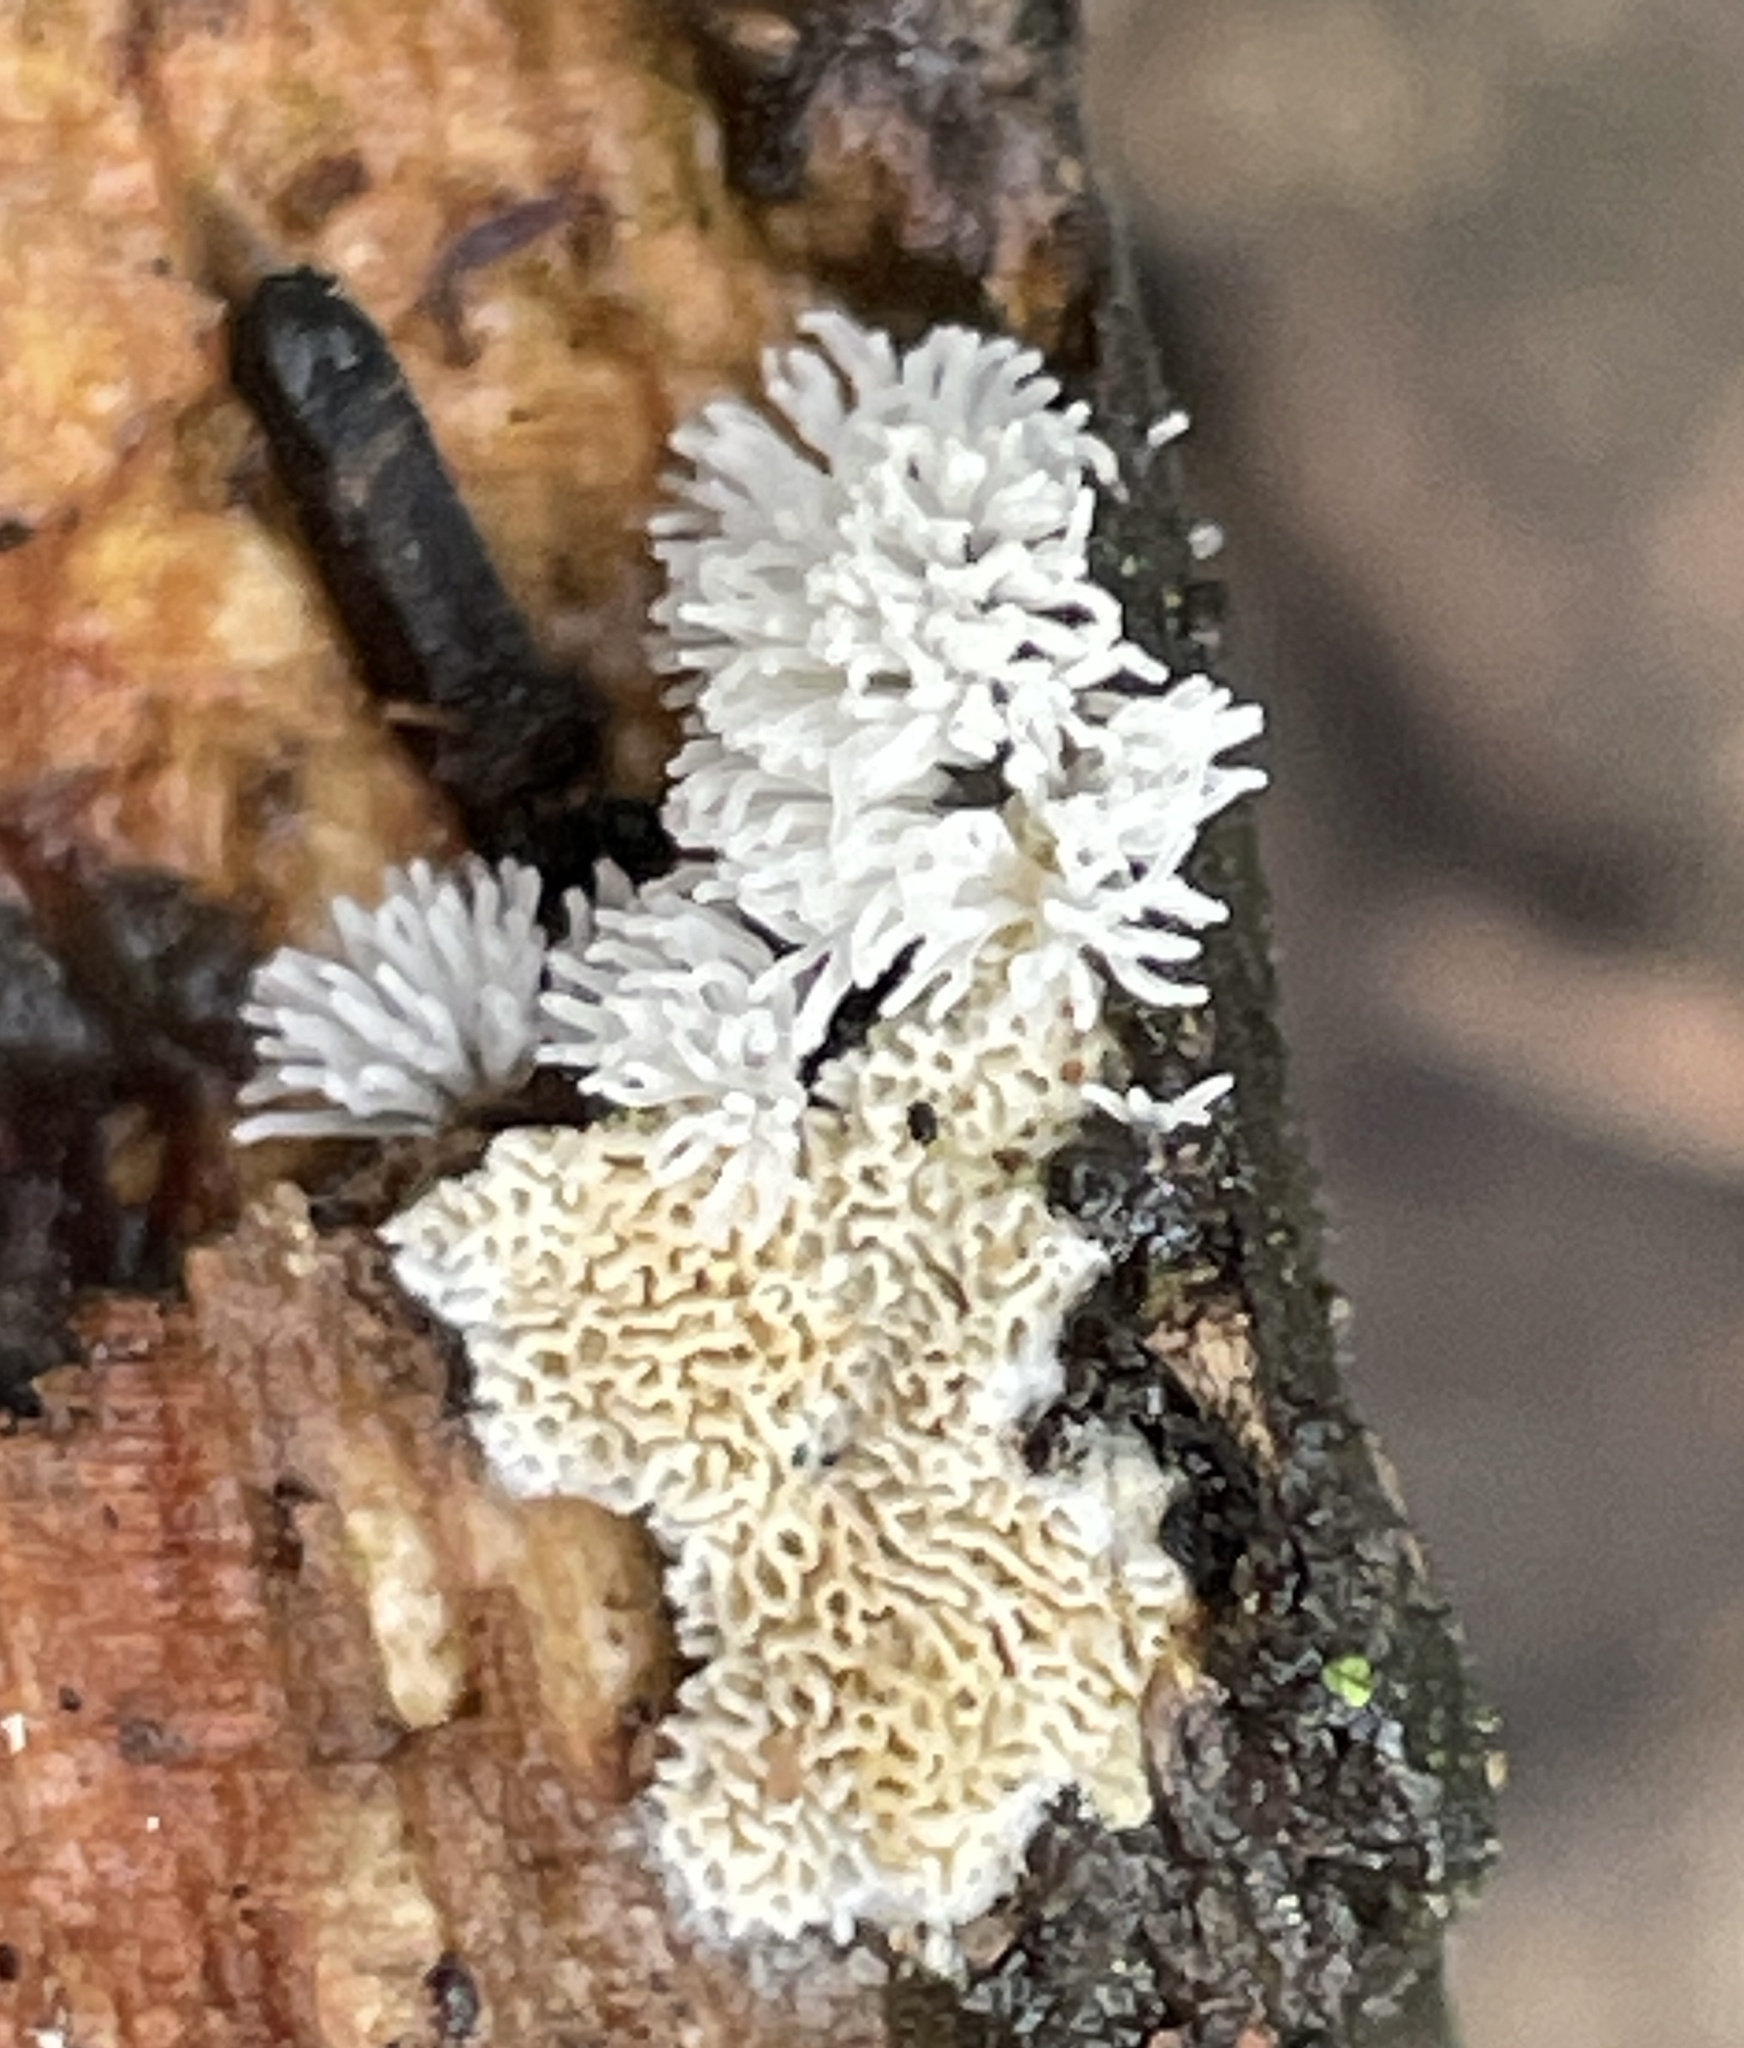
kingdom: Protozoa
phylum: Mycetozoa
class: Protosteliomycetes
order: Ceratiomyxales
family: Ceratiomyxaceae
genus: Ceratiomyxa
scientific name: Ceratiomyxa fruticulosa
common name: Honeycomb coral slime mold
